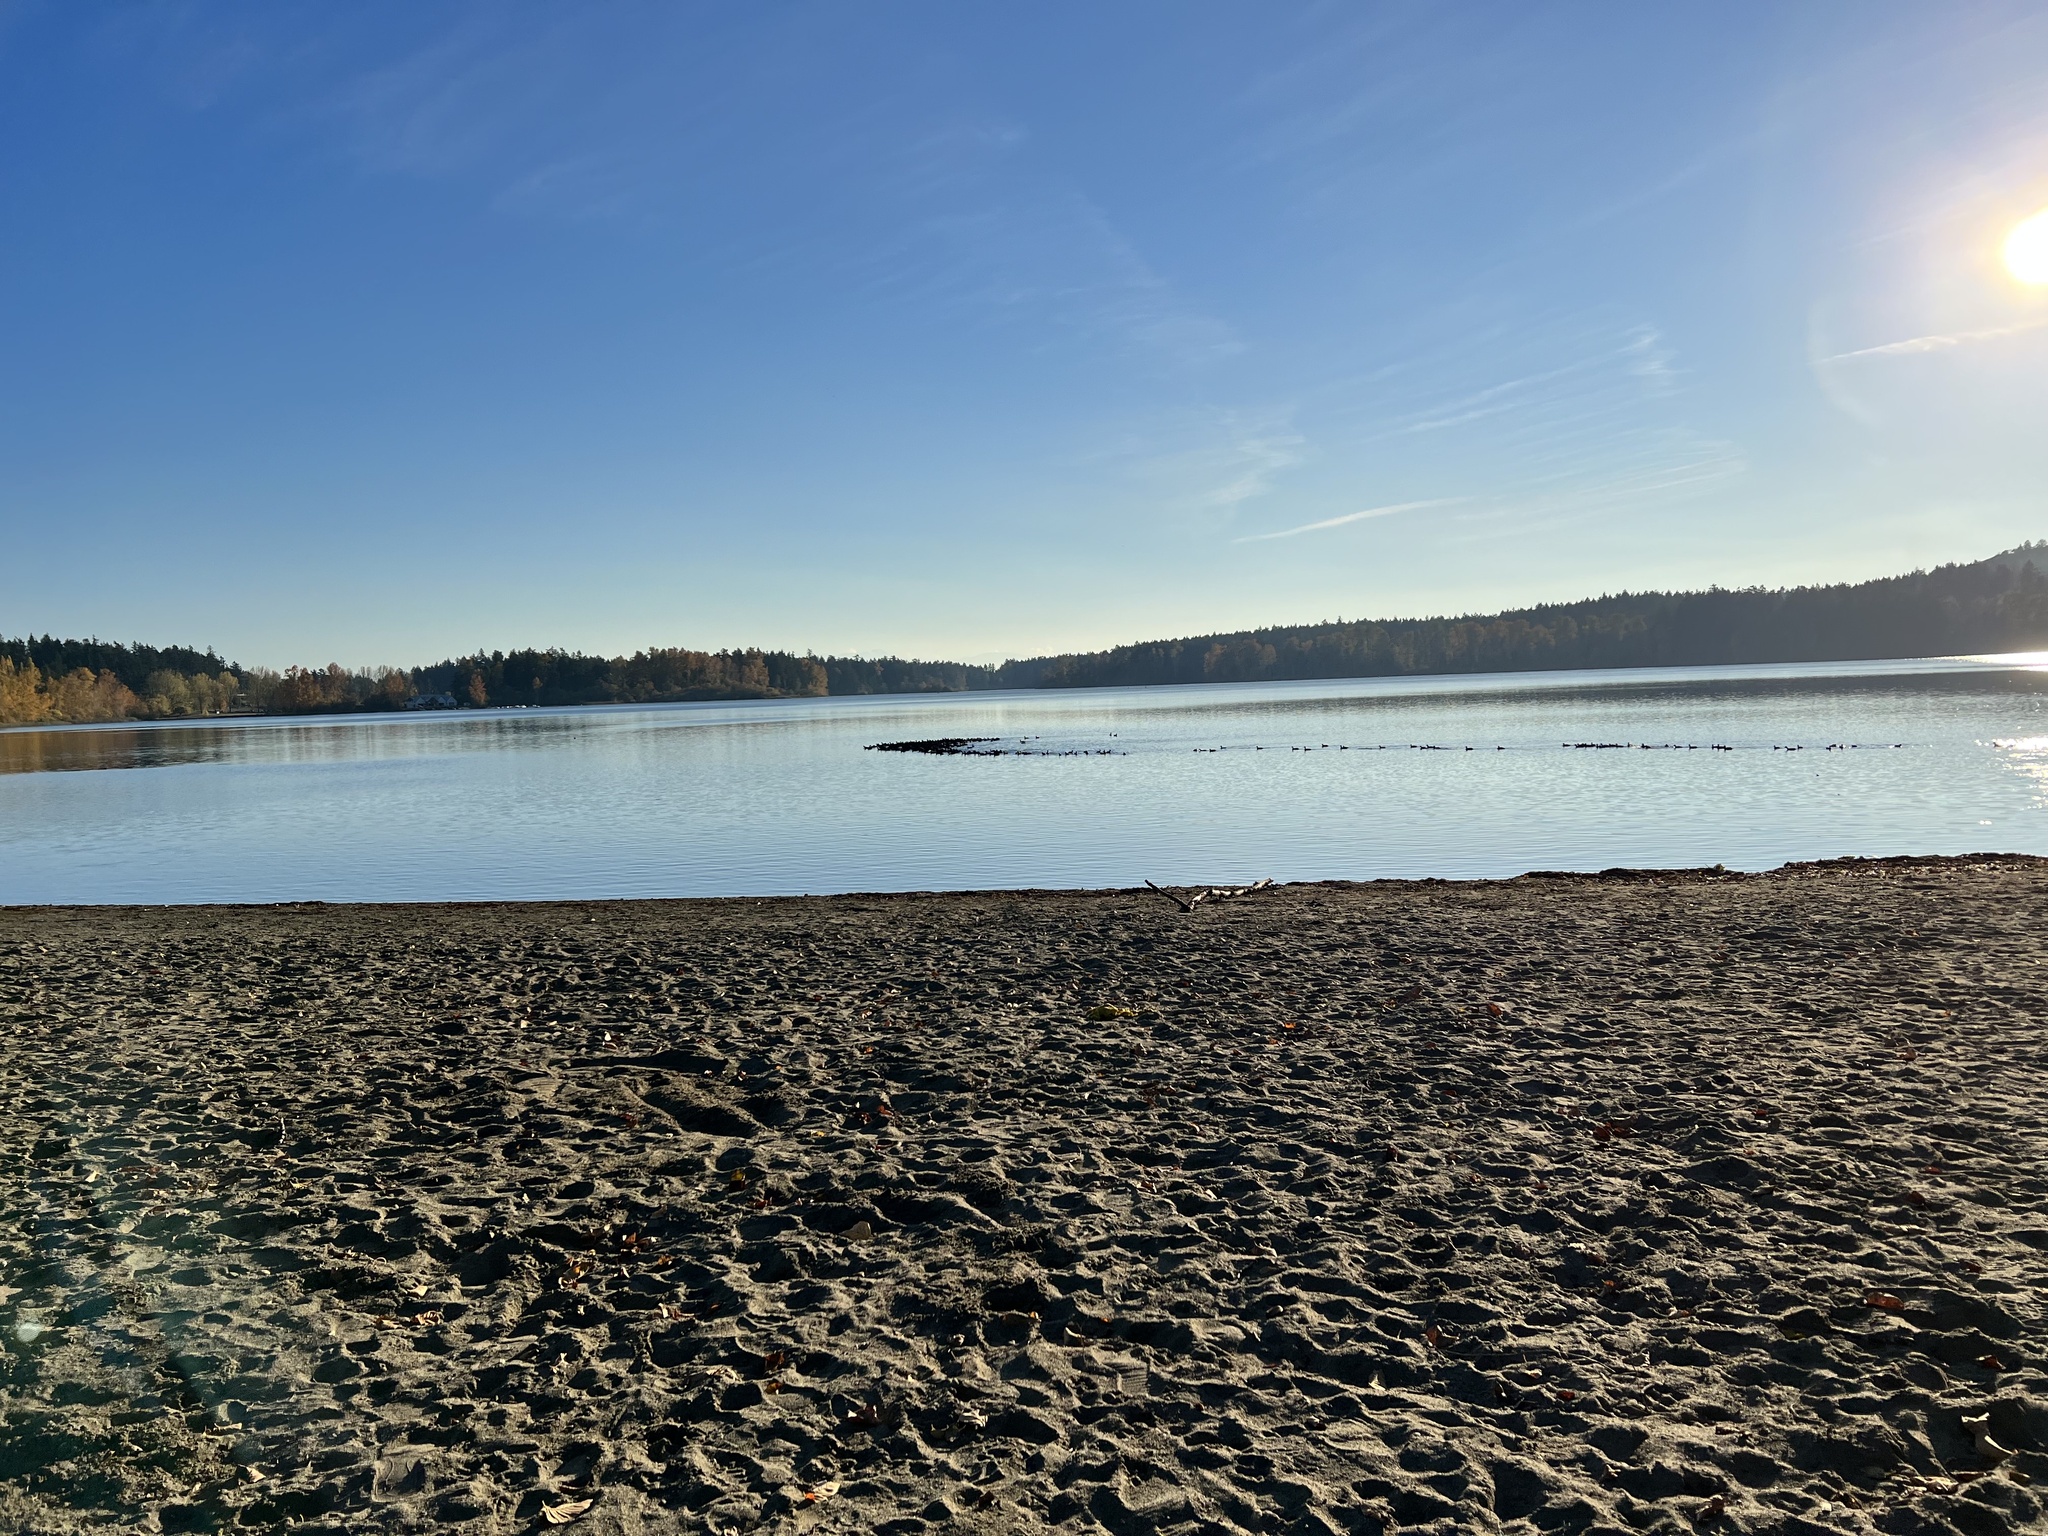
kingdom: Animalia
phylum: Chordata
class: Aves
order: Gruiformes
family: Rallidae
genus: Fulica
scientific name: Fulica americana
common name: American coot
